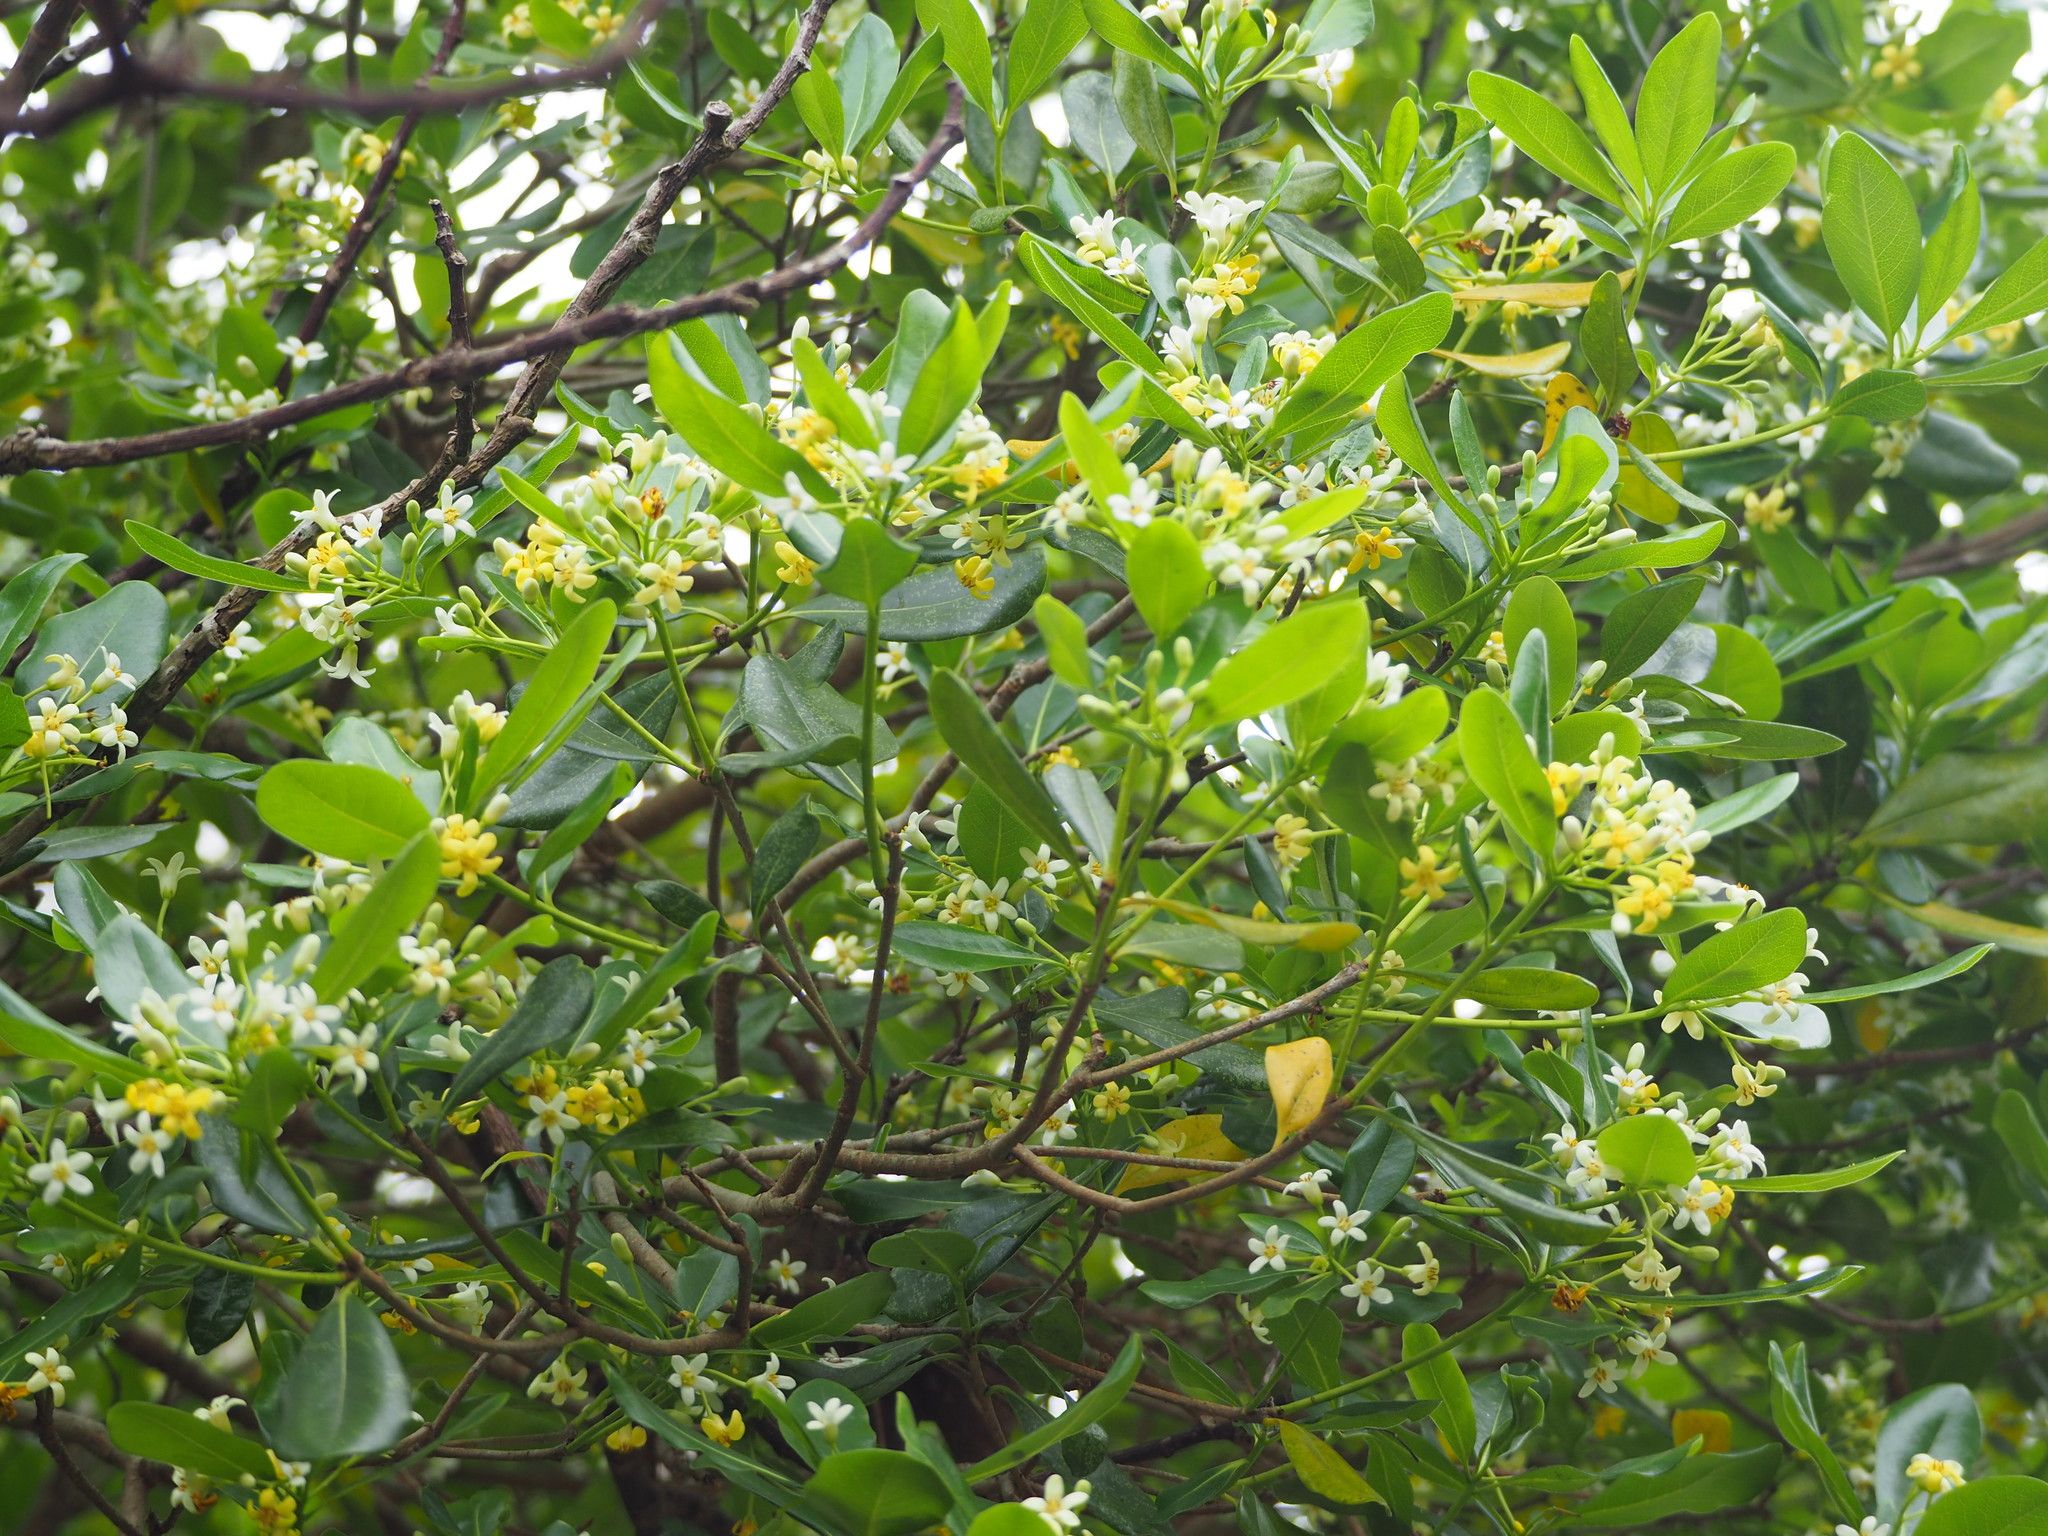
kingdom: Plantae
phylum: Tracheophyta
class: Magnoliopsida
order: Apiales
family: Pittosporaceae
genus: Pittosporum
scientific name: Pittosporum tobira
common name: Japanese cheesewood
